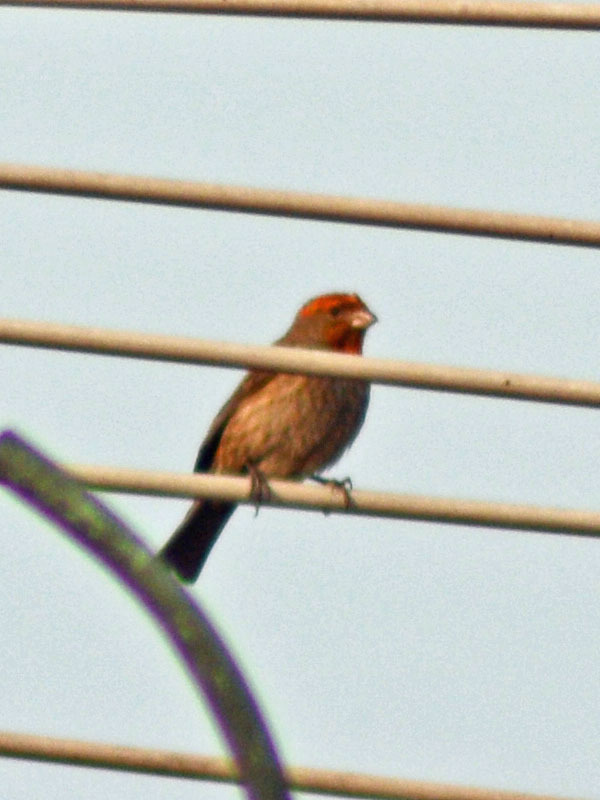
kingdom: Animalia
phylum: Chordata
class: Aves
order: Passeriformes
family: Fringillidae
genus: Haemorhous
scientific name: Haemorhous mexicanus
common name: House finch
